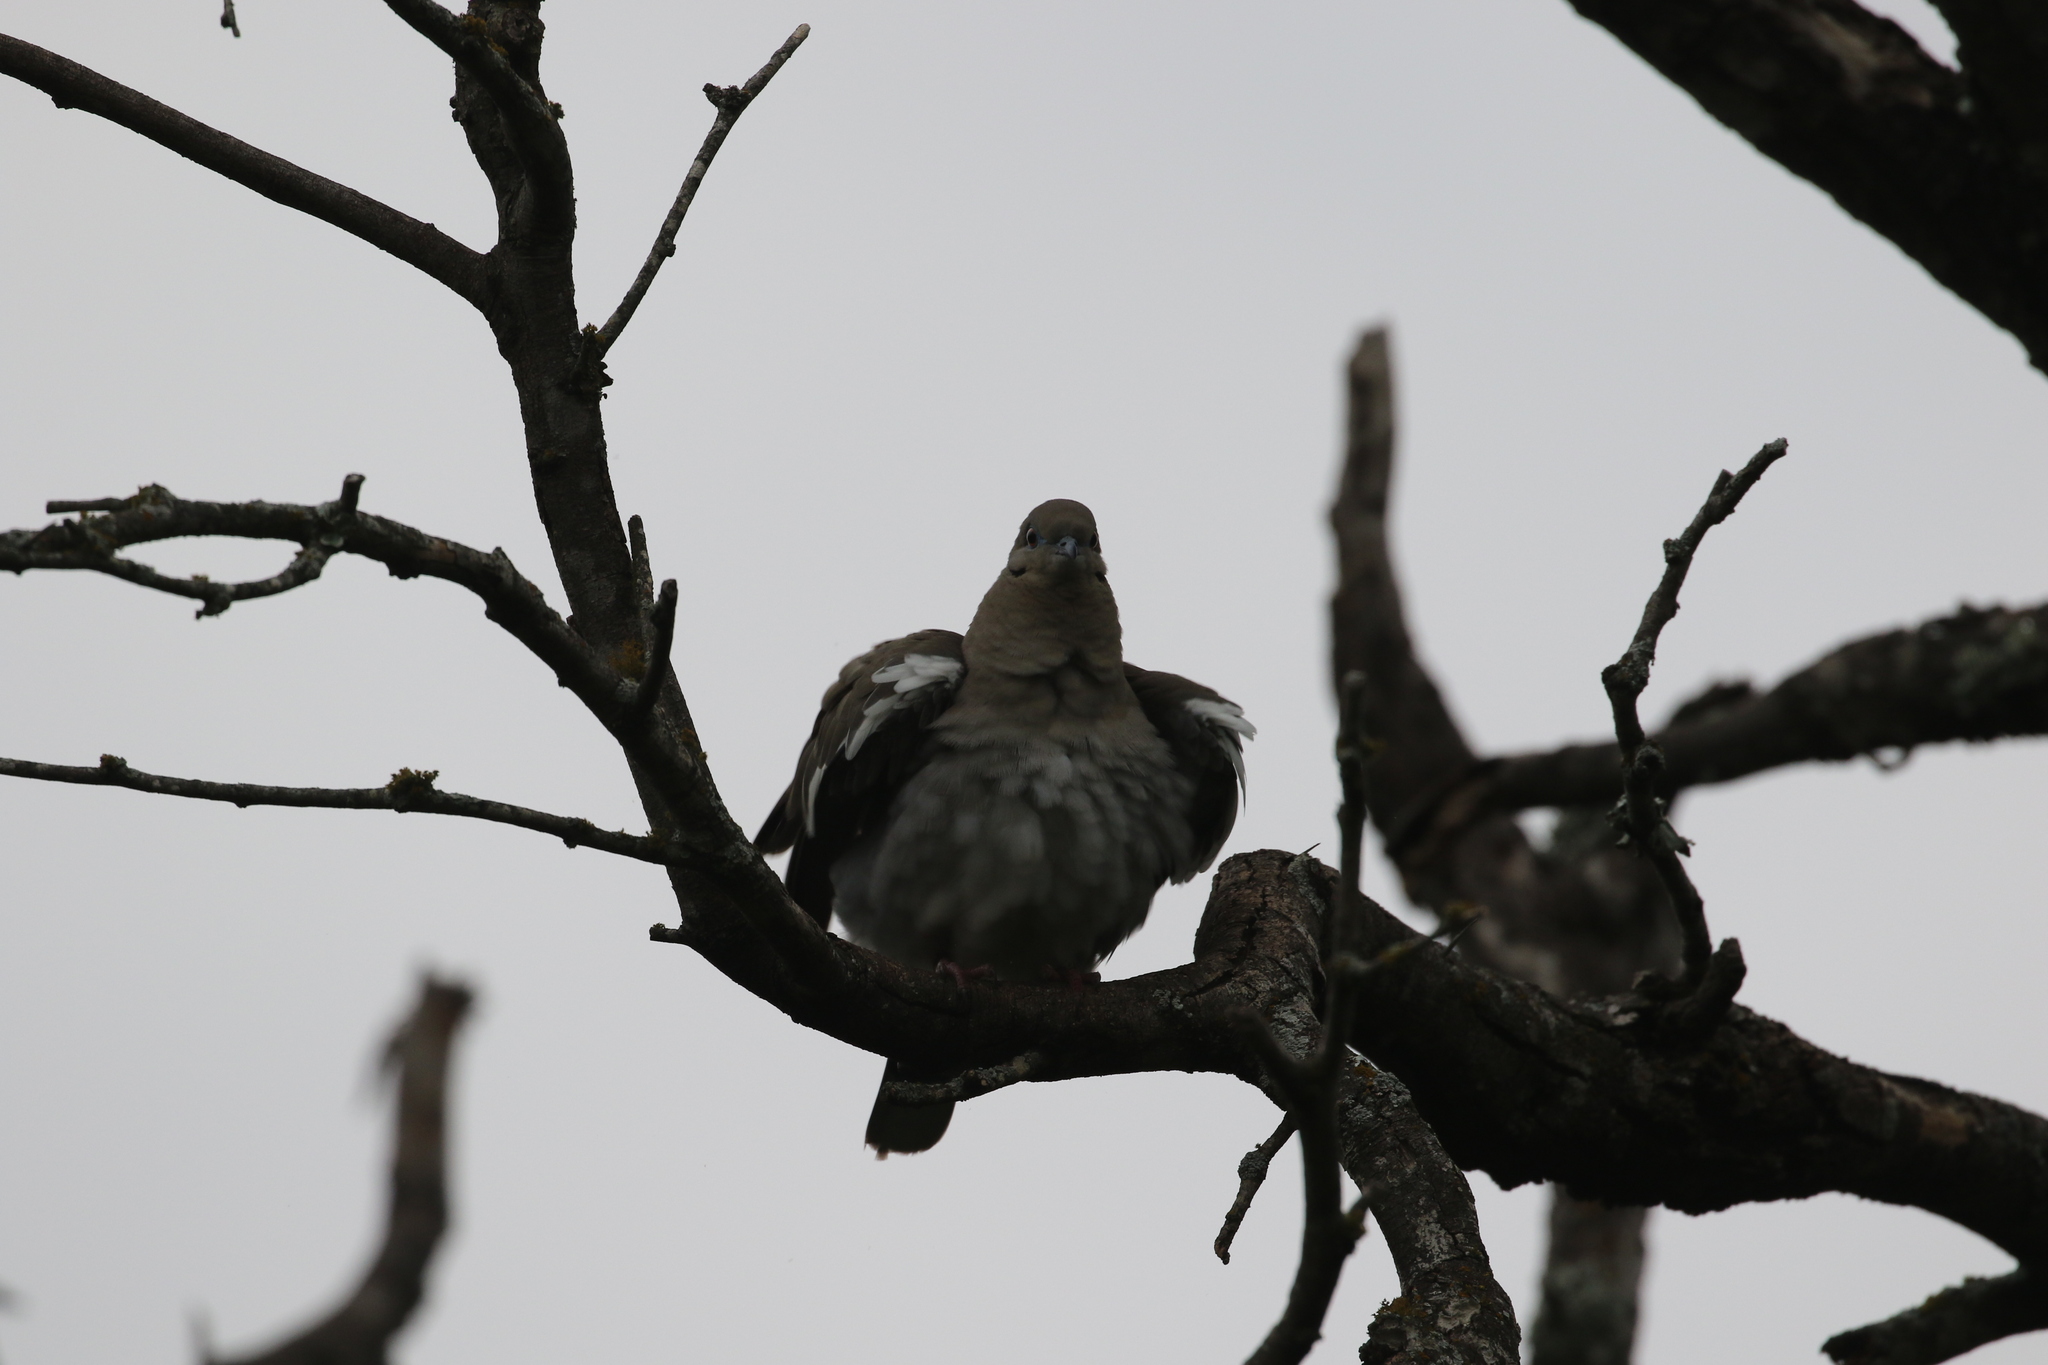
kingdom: Animalia
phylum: Chordata
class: Aves
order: Columbiformes
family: Columbidae
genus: Zenaida
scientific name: Zenaida asiatica
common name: White-winged dove
